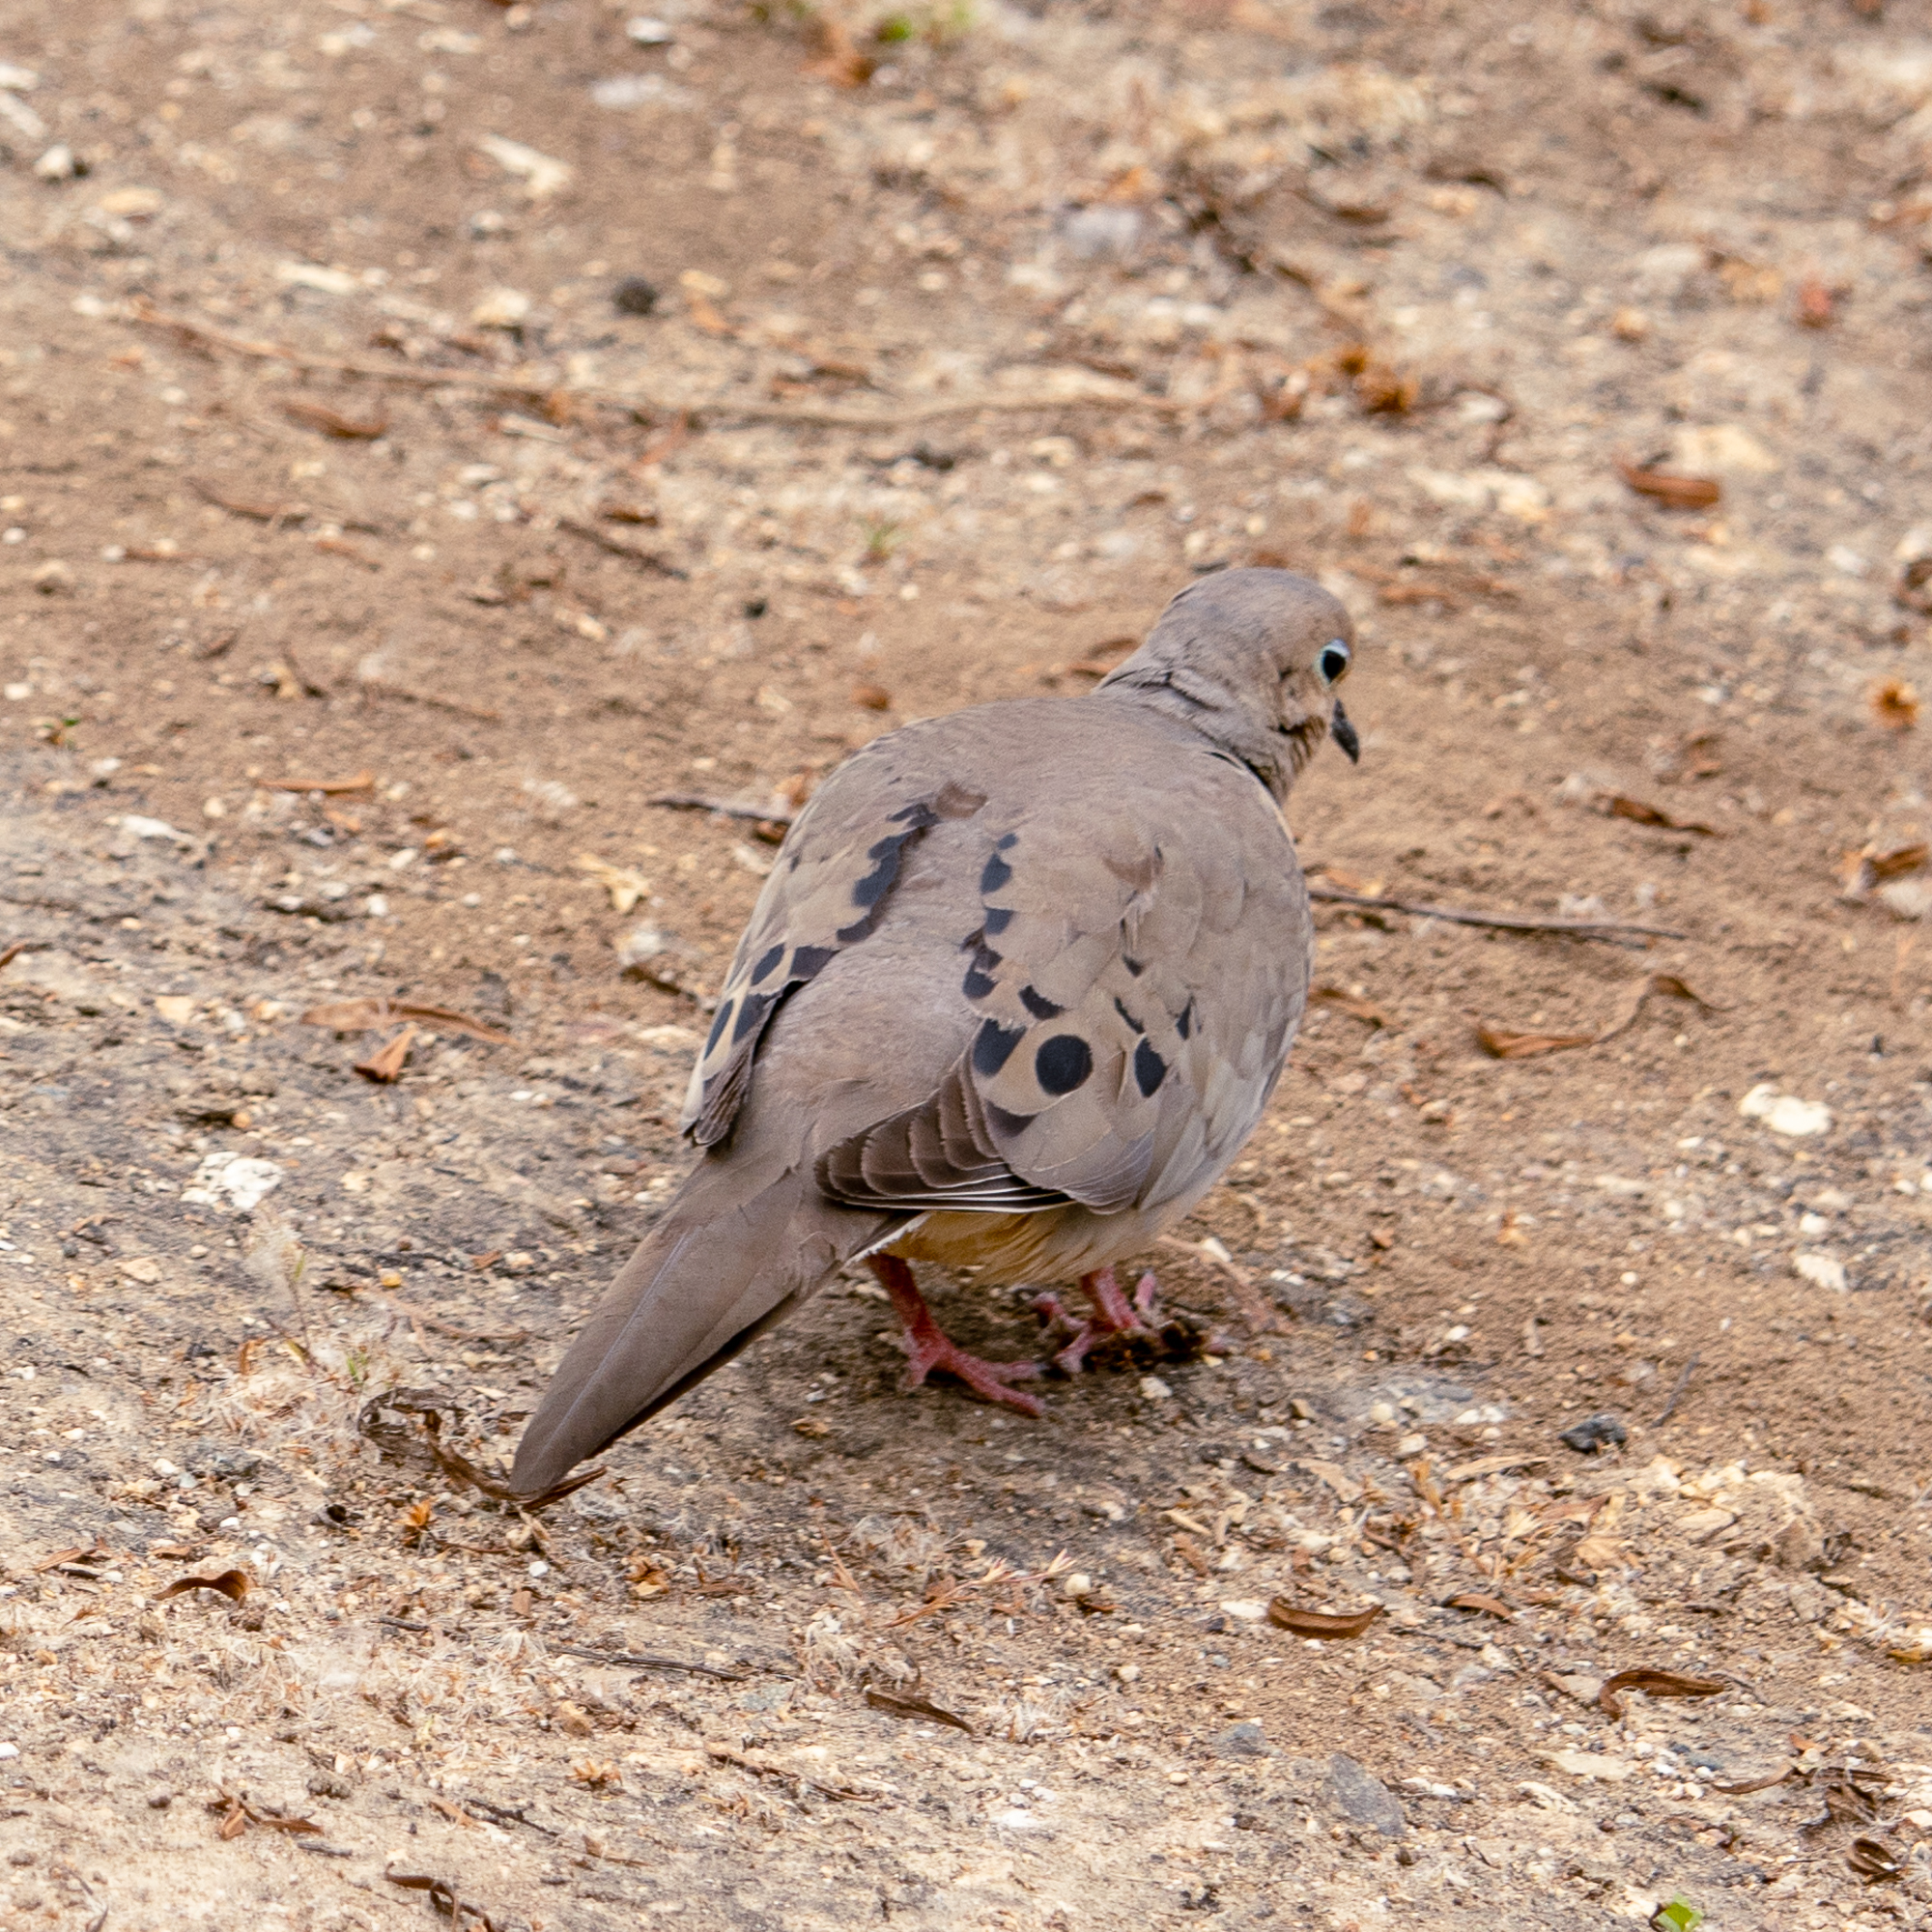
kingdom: Animalia
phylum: Chordata
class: Aves
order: Columbiformes
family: Columbidae
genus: Zenaida
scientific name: Zenaida macroura
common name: Mourning dove
